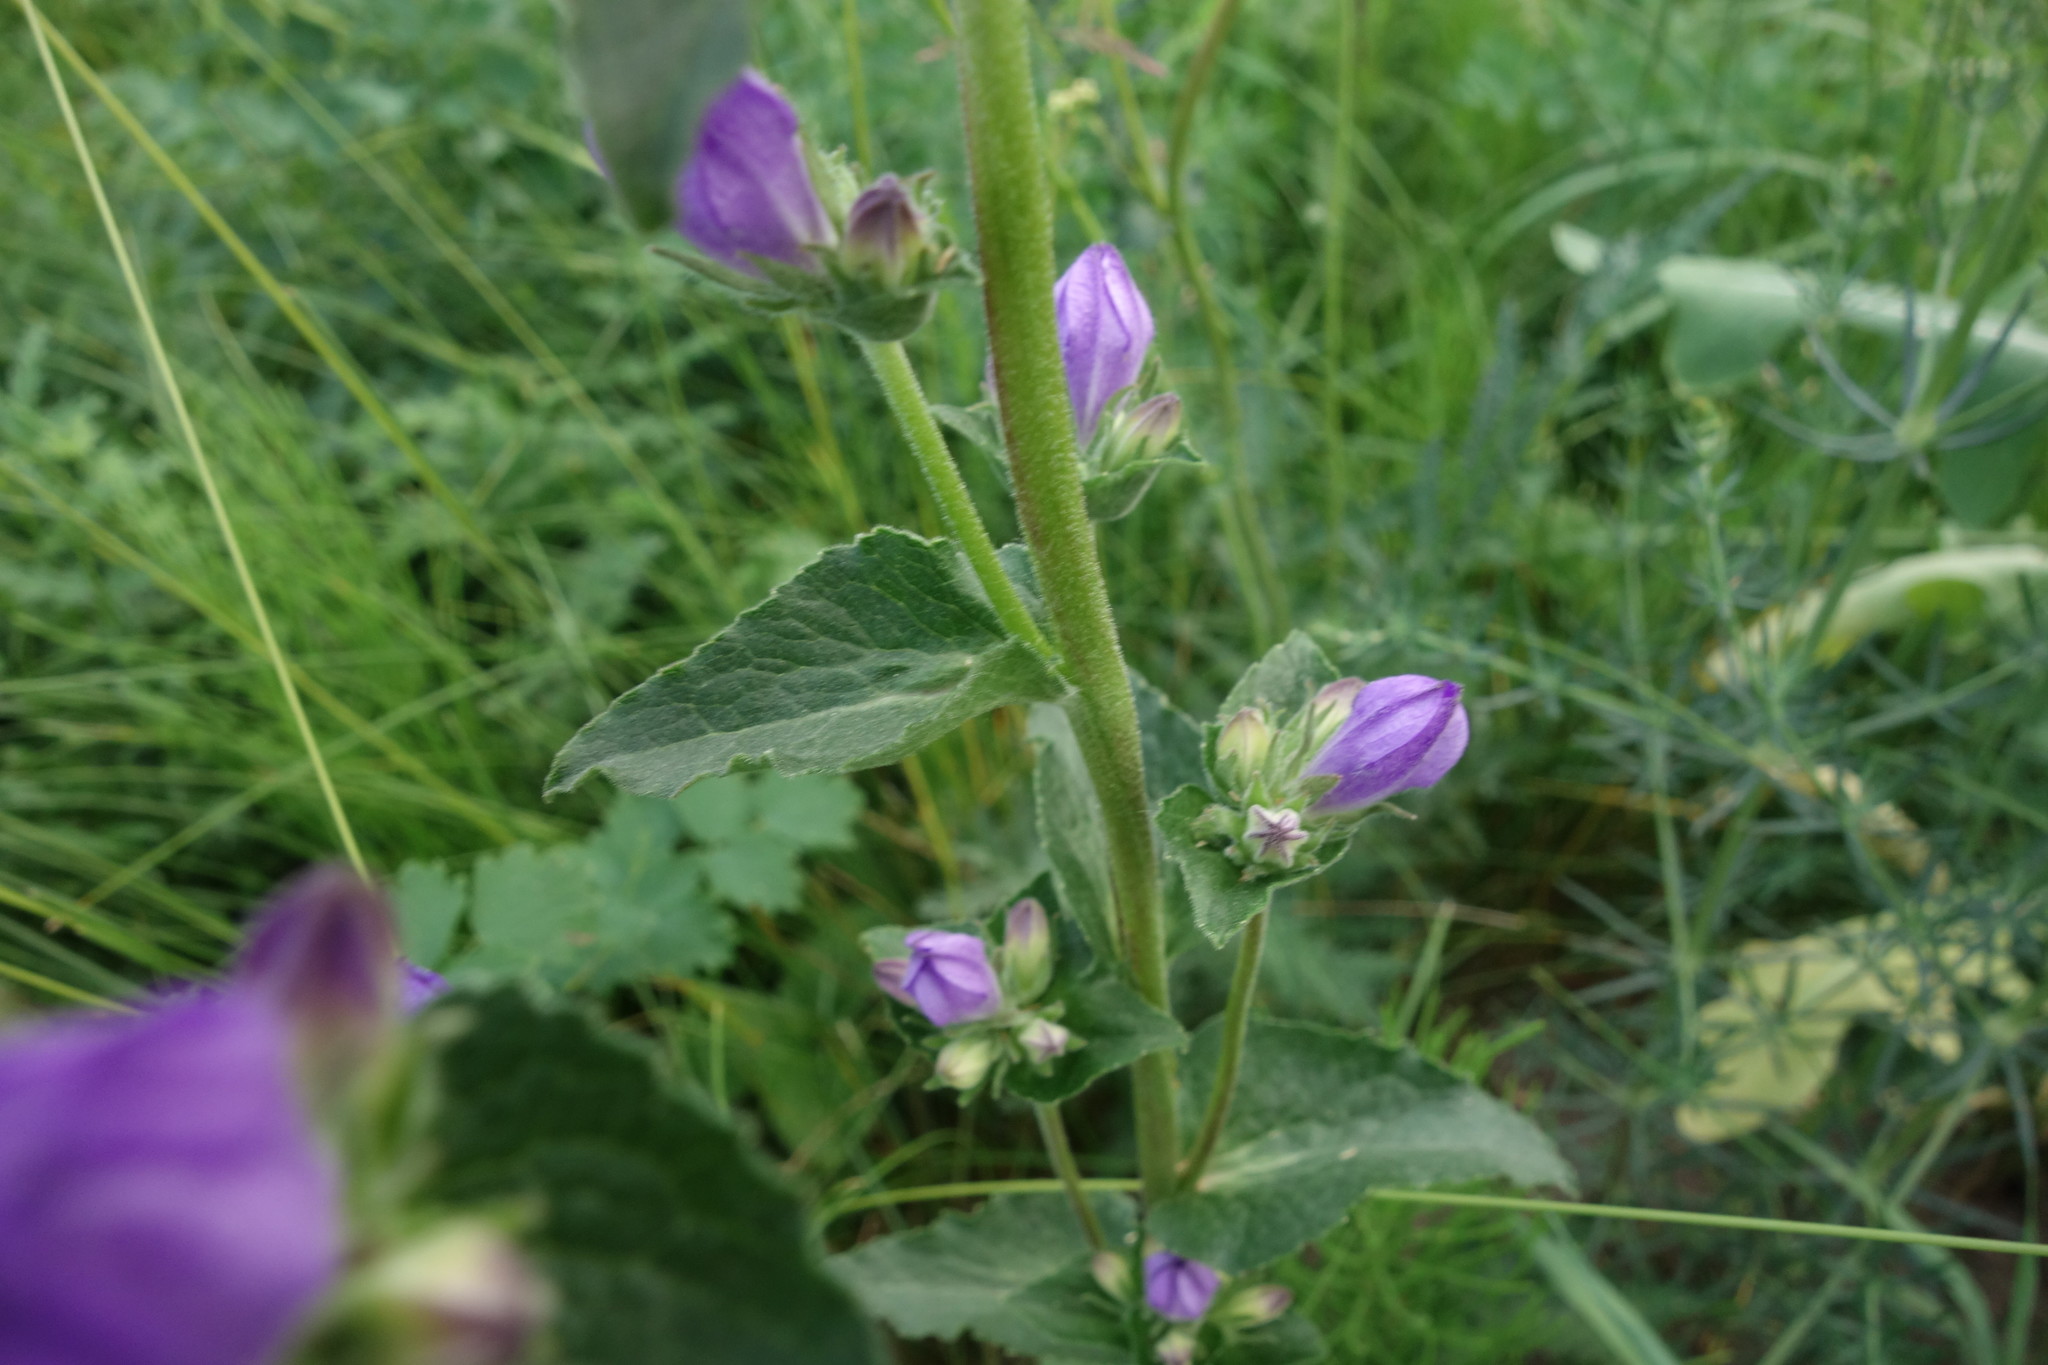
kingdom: Plantae
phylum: Tracheophyta
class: Magnoliopsida
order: Asterales
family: Campanulaceae
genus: Campanula
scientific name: Campanula glomerata
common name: Clustered bellflower
